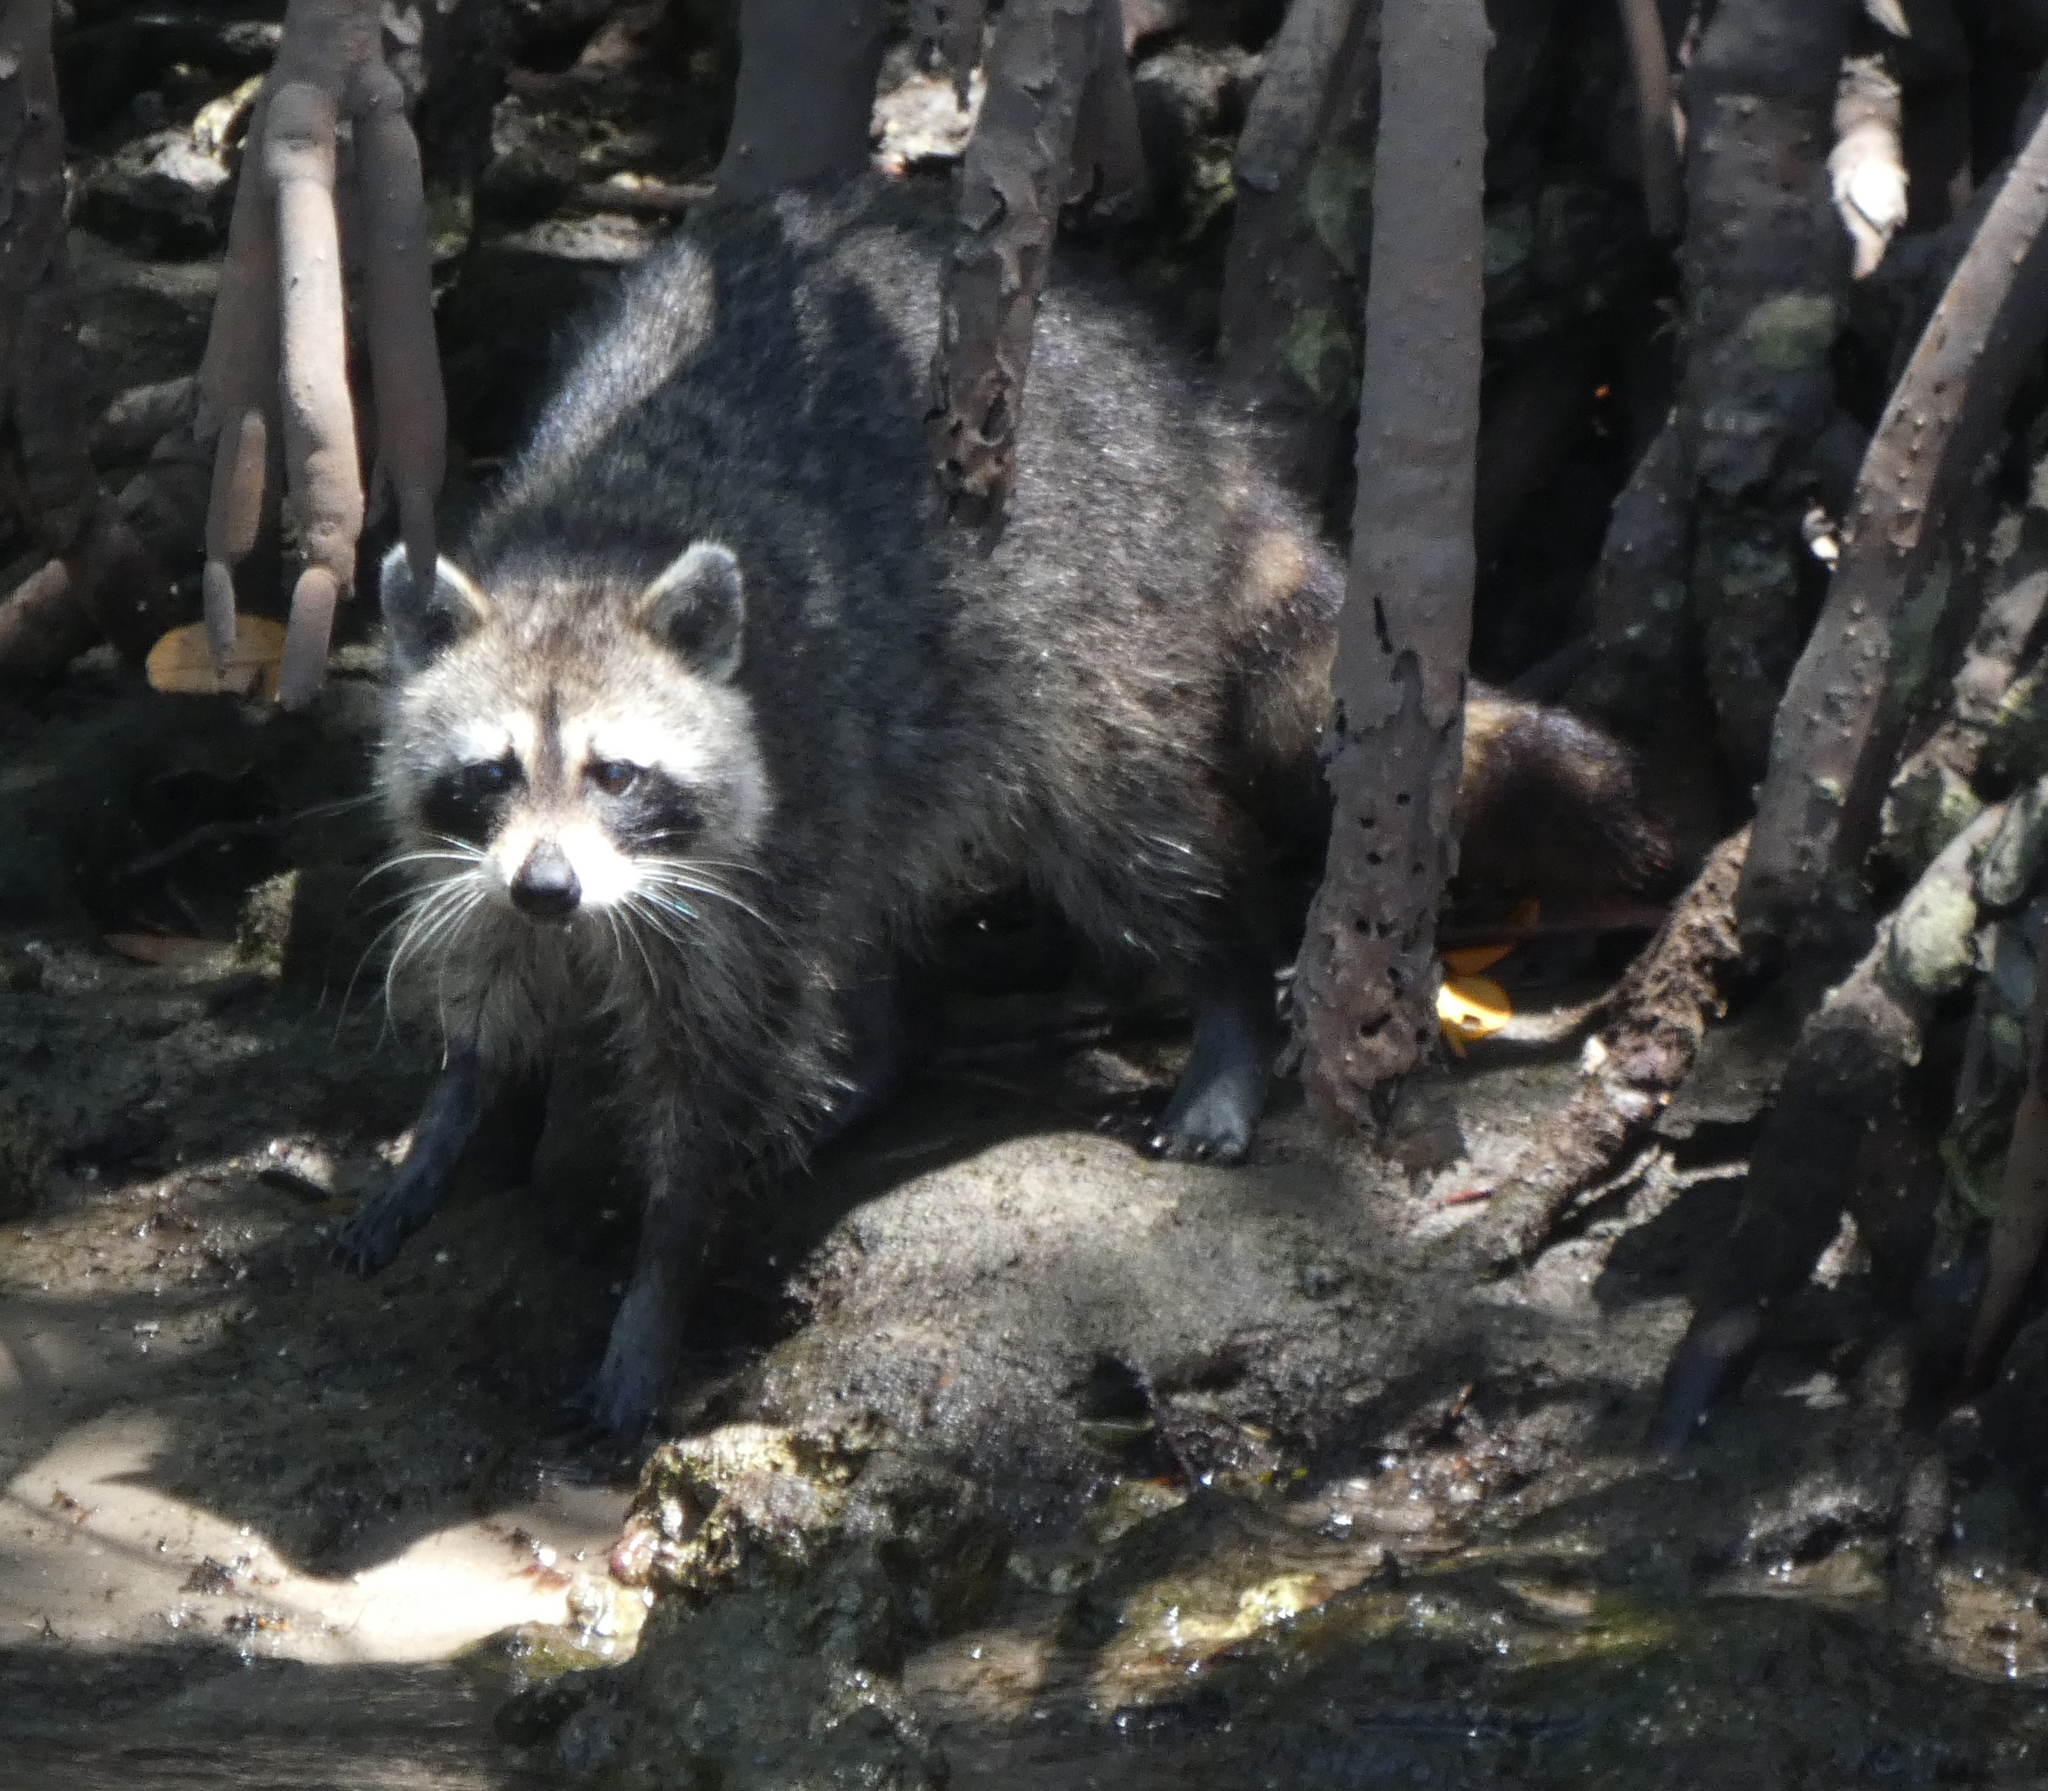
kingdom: Animalia
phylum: Chordata
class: Mammalia
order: Carnivora
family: Procyonidae
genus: Procyon
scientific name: Procyon lotor
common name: Raccoon
